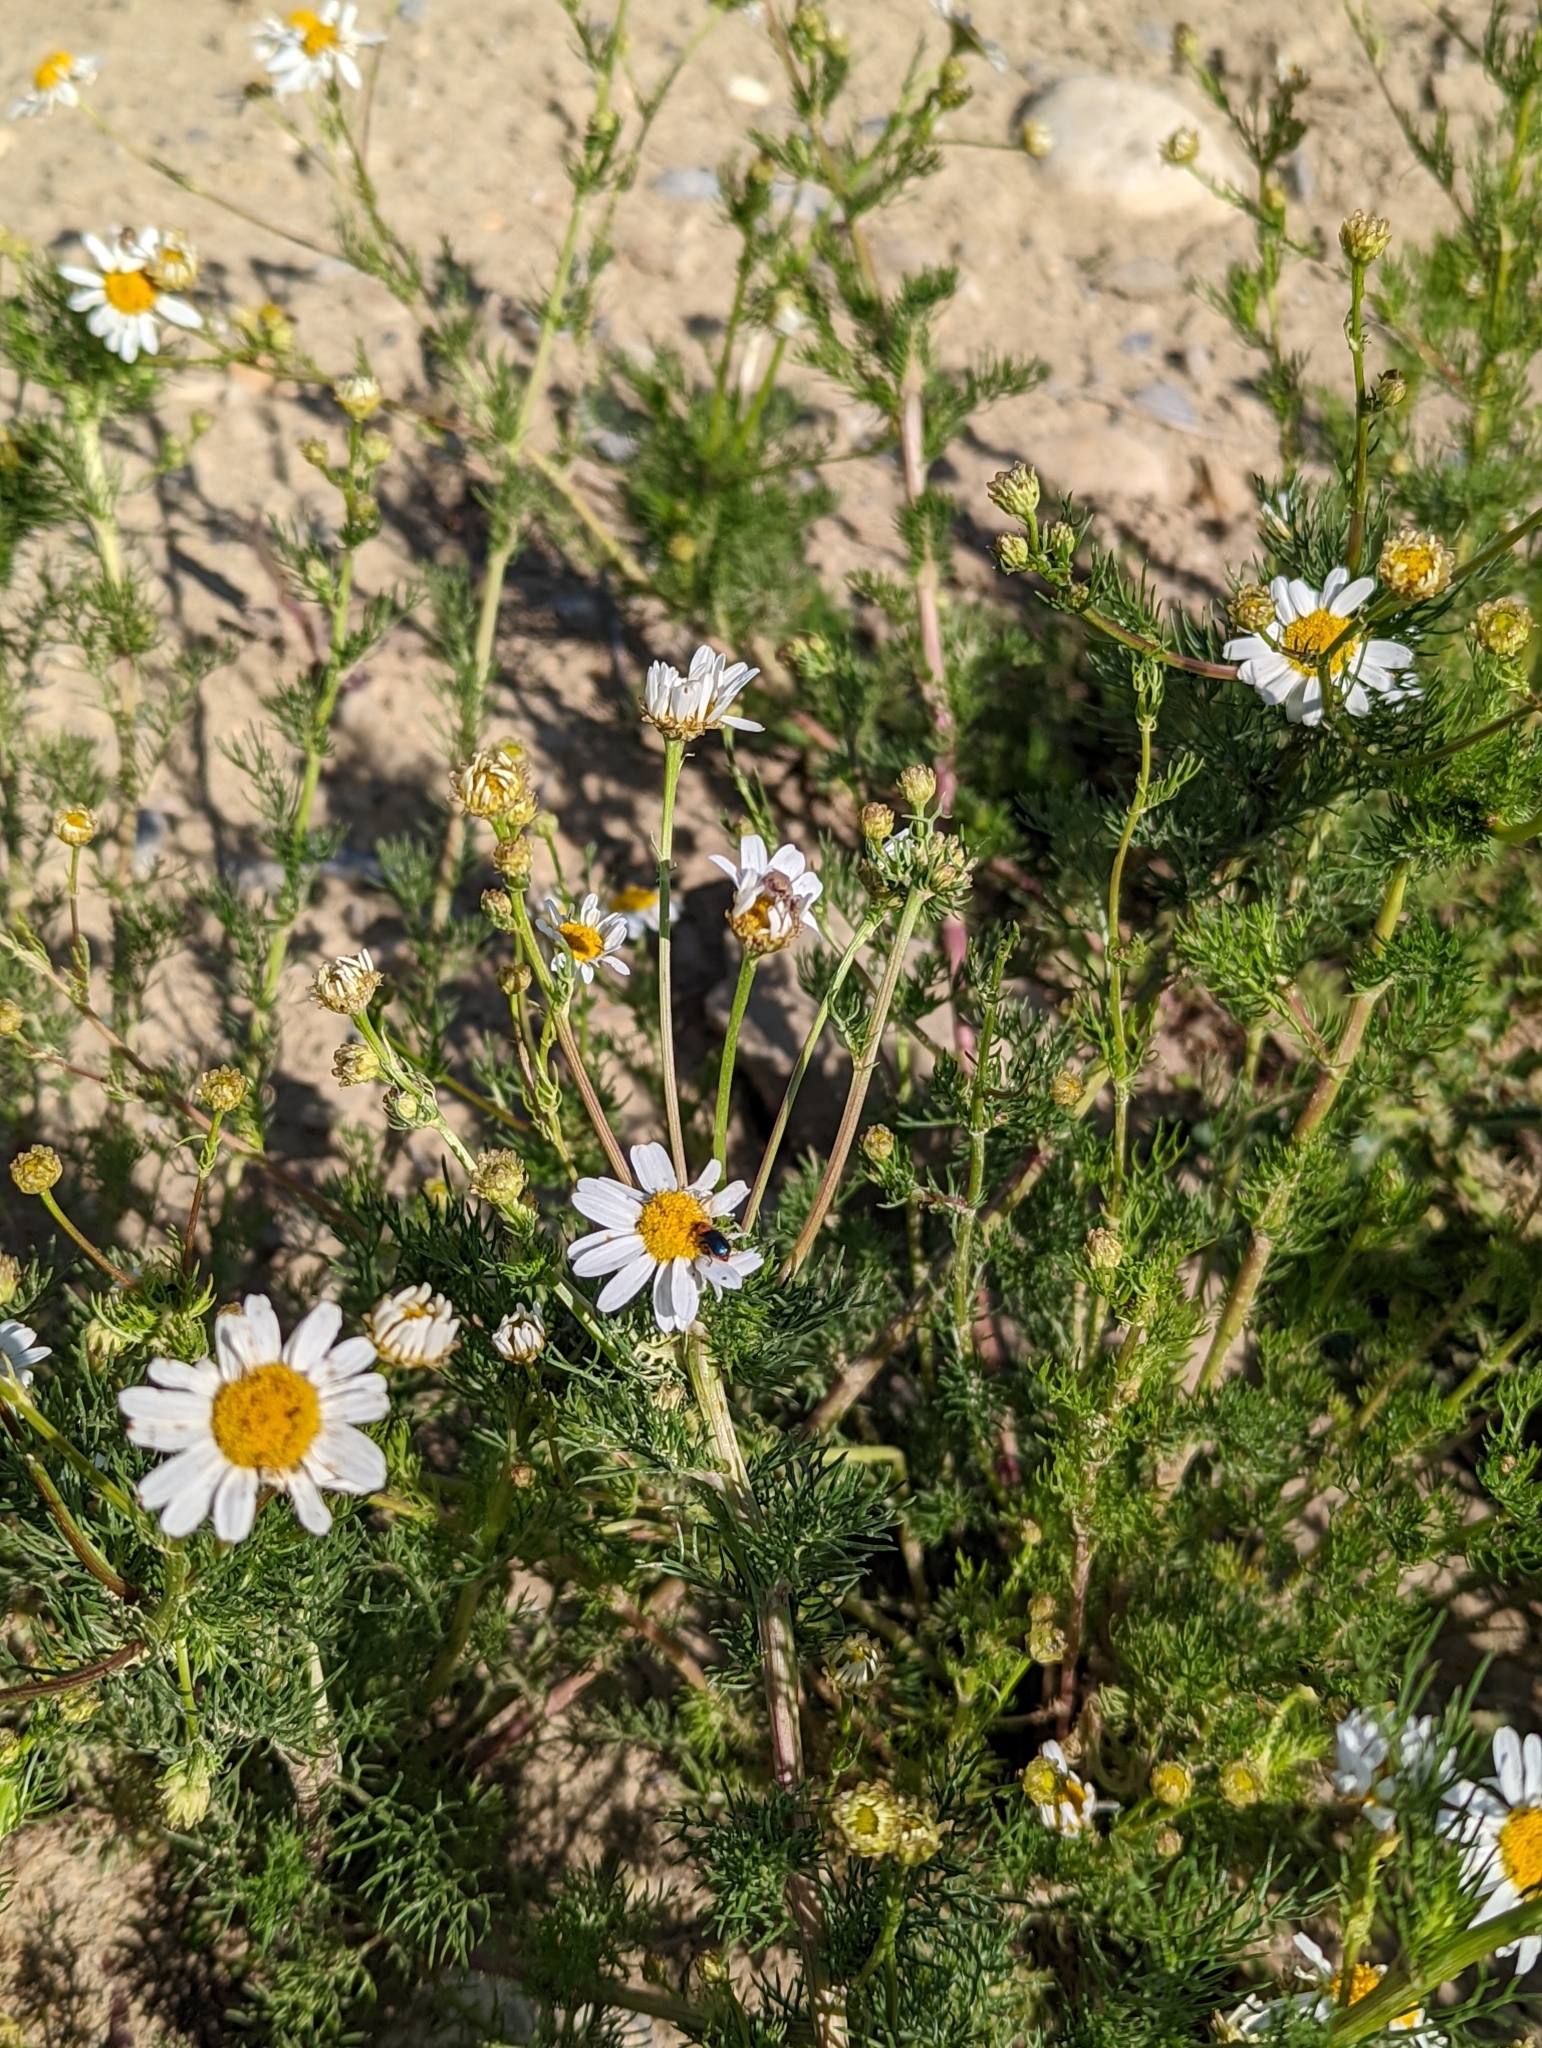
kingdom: Plantae
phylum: Tracheophyta
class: Magnoliopsida
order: Asterales
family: Asteraceae
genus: Tripleurospermum
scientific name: Tripleurospermum inodorum
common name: Scentless mayweed
